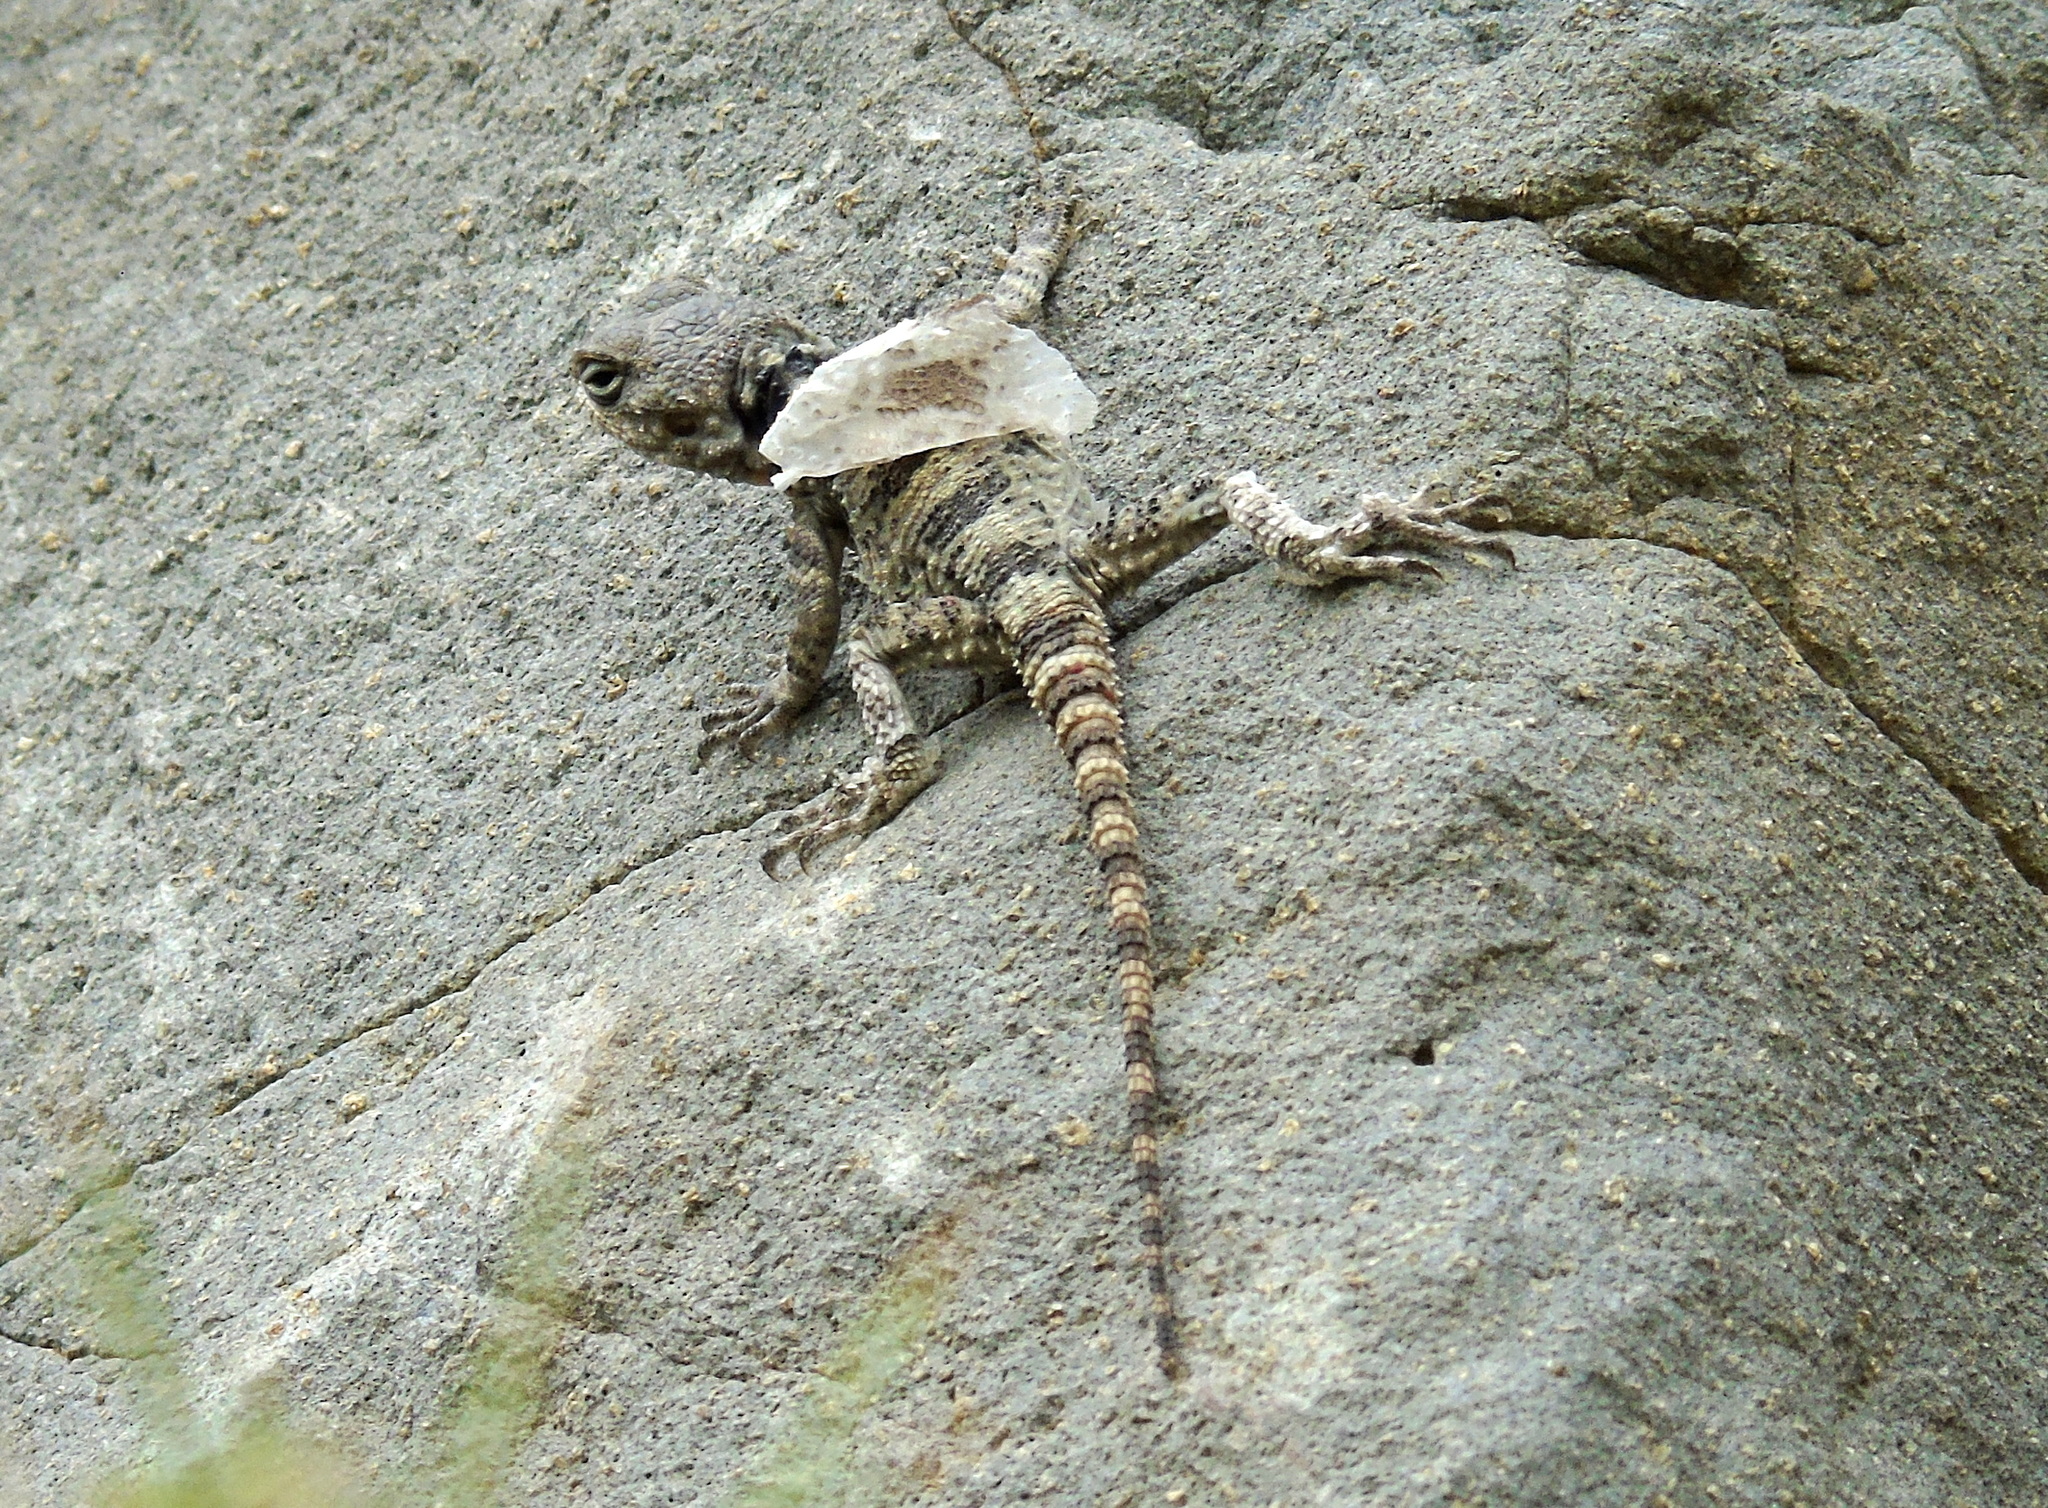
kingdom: Animalia
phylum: Chordata
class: Squamata
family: Agamidae
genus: Stellagama
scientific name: Stellagama stellio
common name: Starred agama
